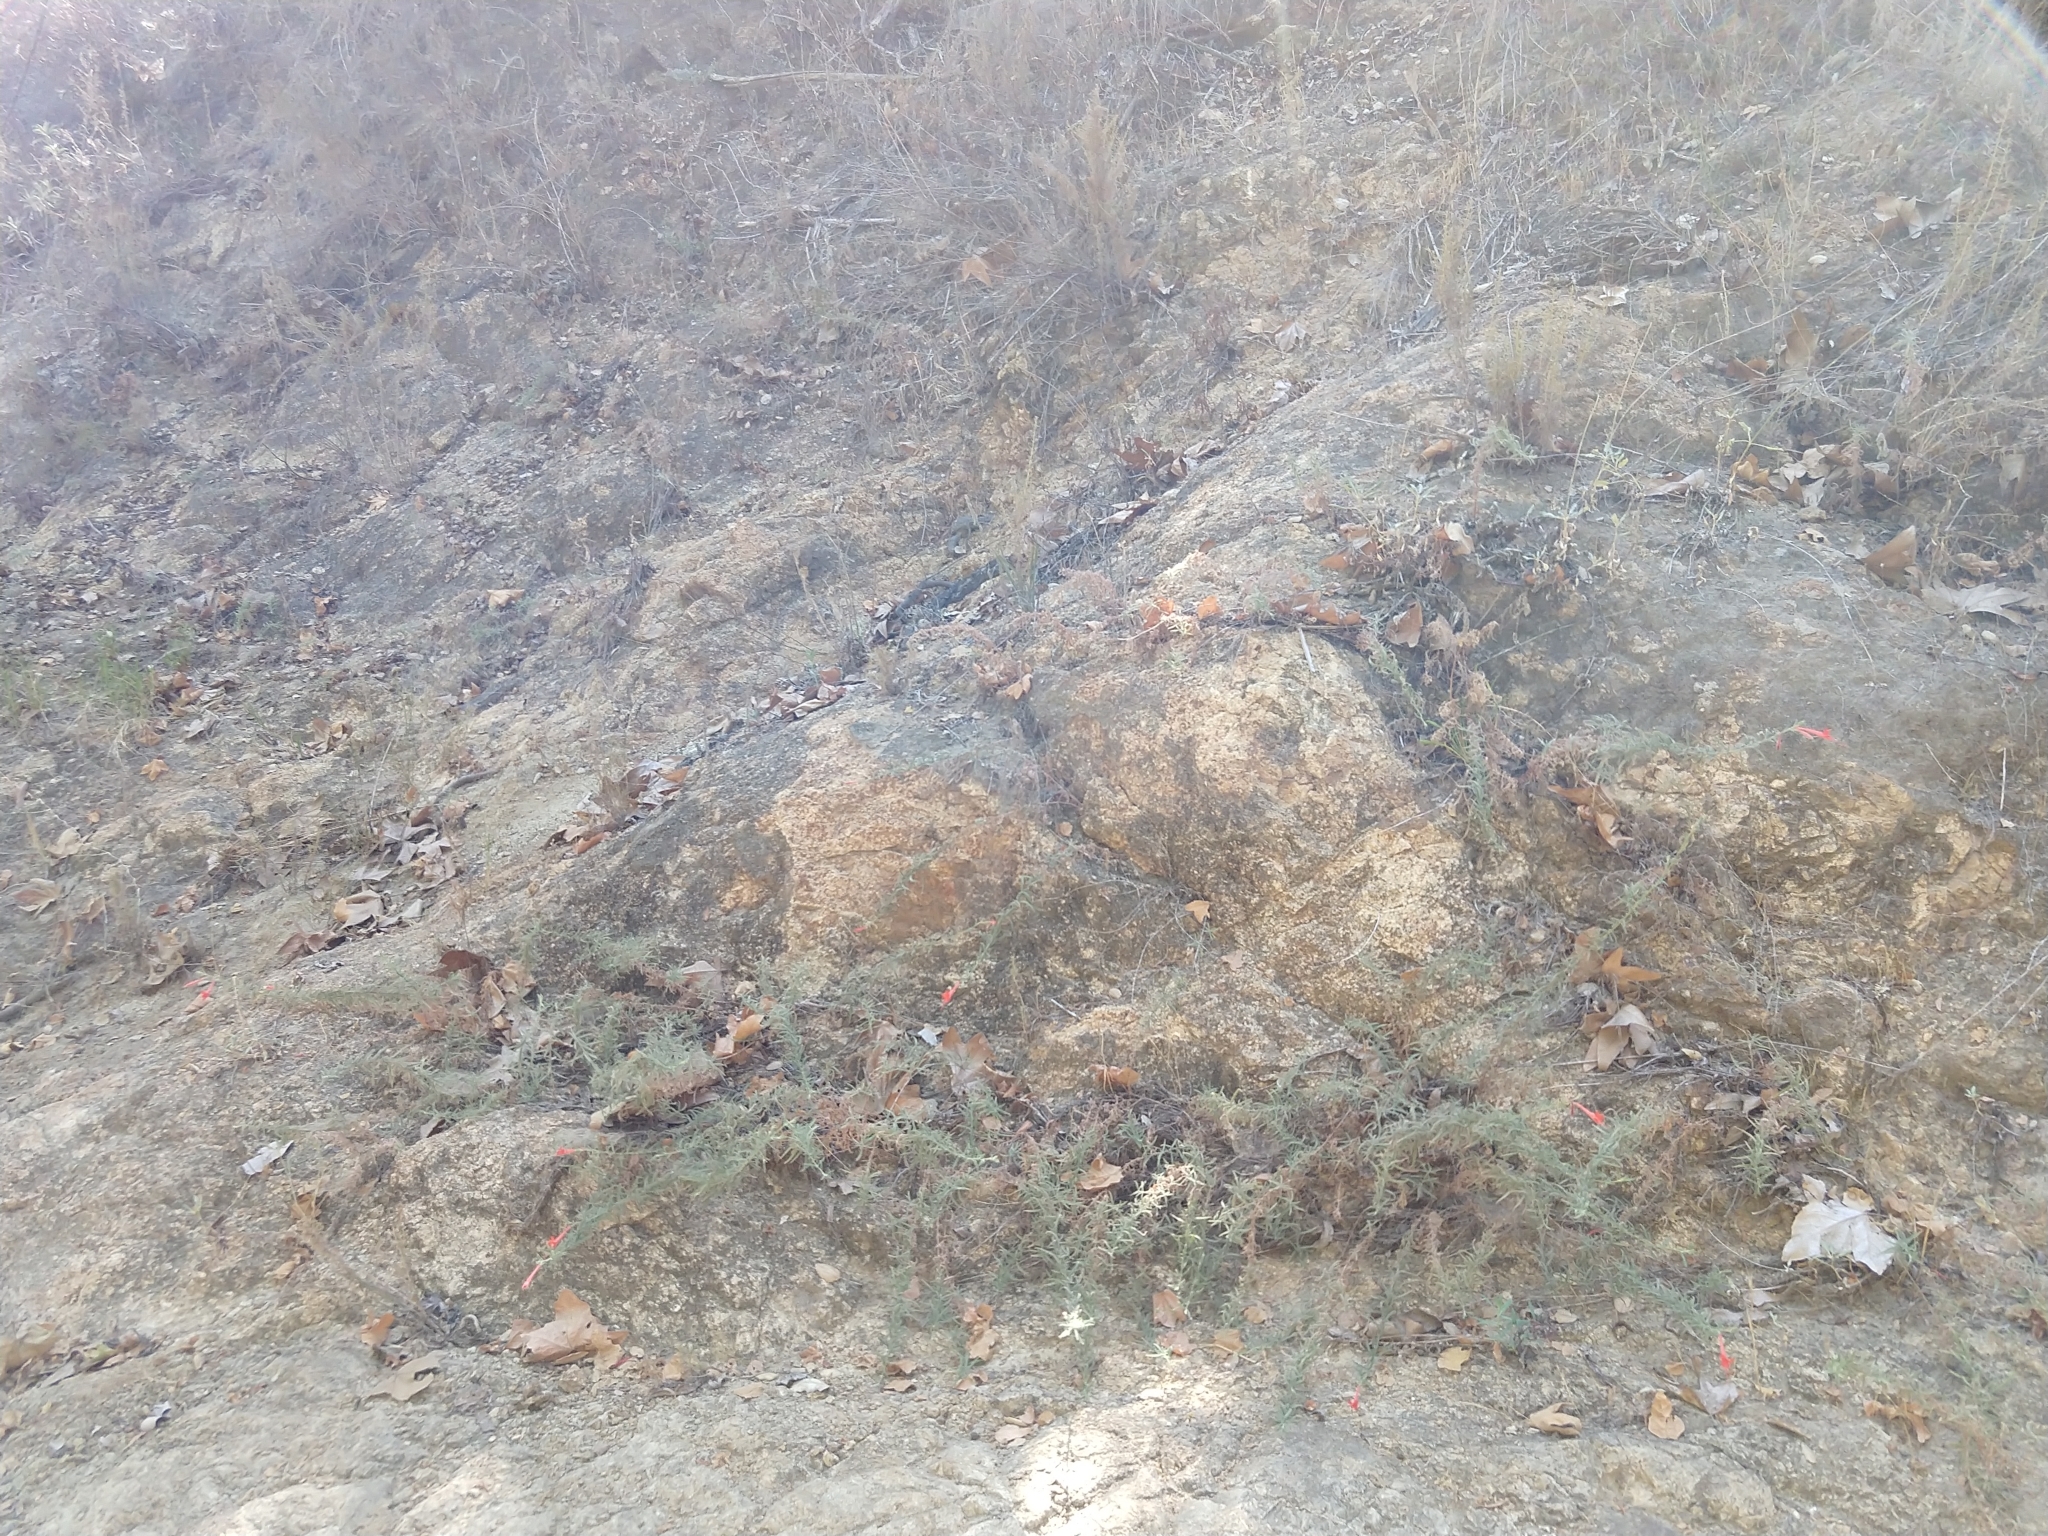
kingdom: Plantae
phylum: Tracheophyta
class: Magnoliopsida
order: Myrtales
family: Onagraceae
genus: Epilobium
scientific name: Epilobium canum
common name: California-fuchsia
